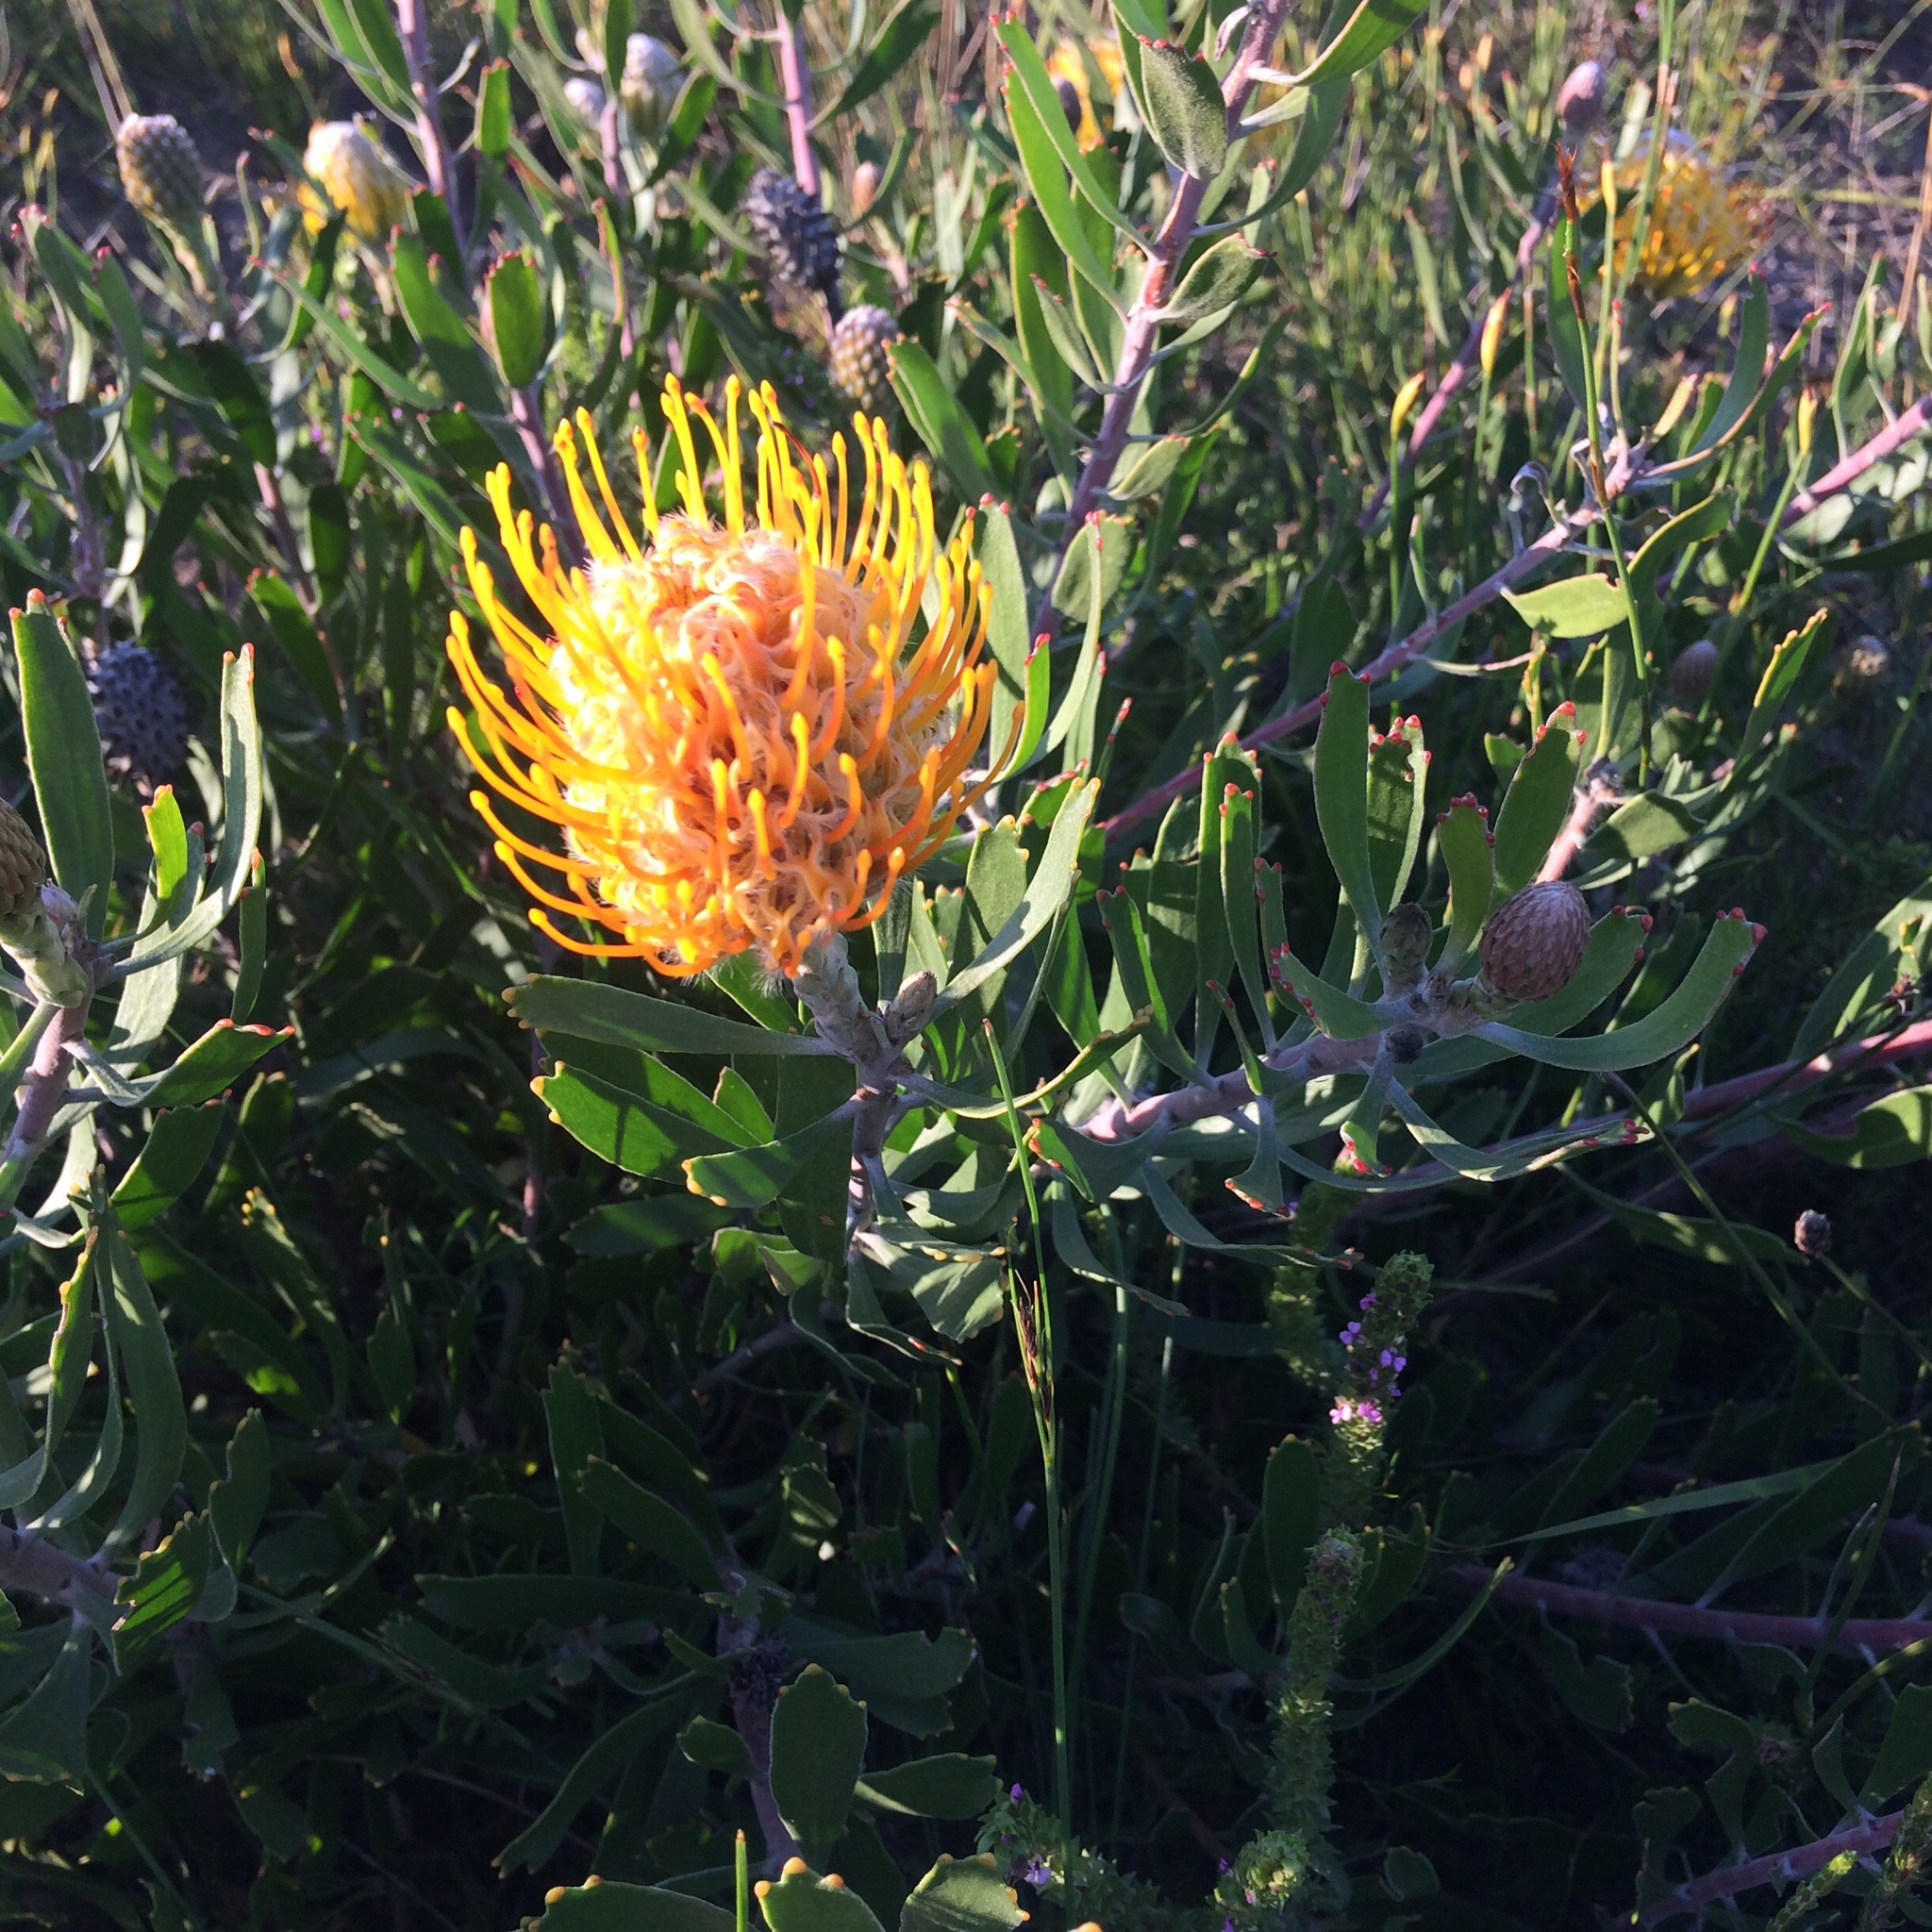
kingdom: Plantae
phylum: Tracheophyta
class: Magnoliopsida
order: Proteales
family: Proteaceae
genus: Leucospermum
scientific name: Leucospermum cuneiforme
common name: Common pincushion
